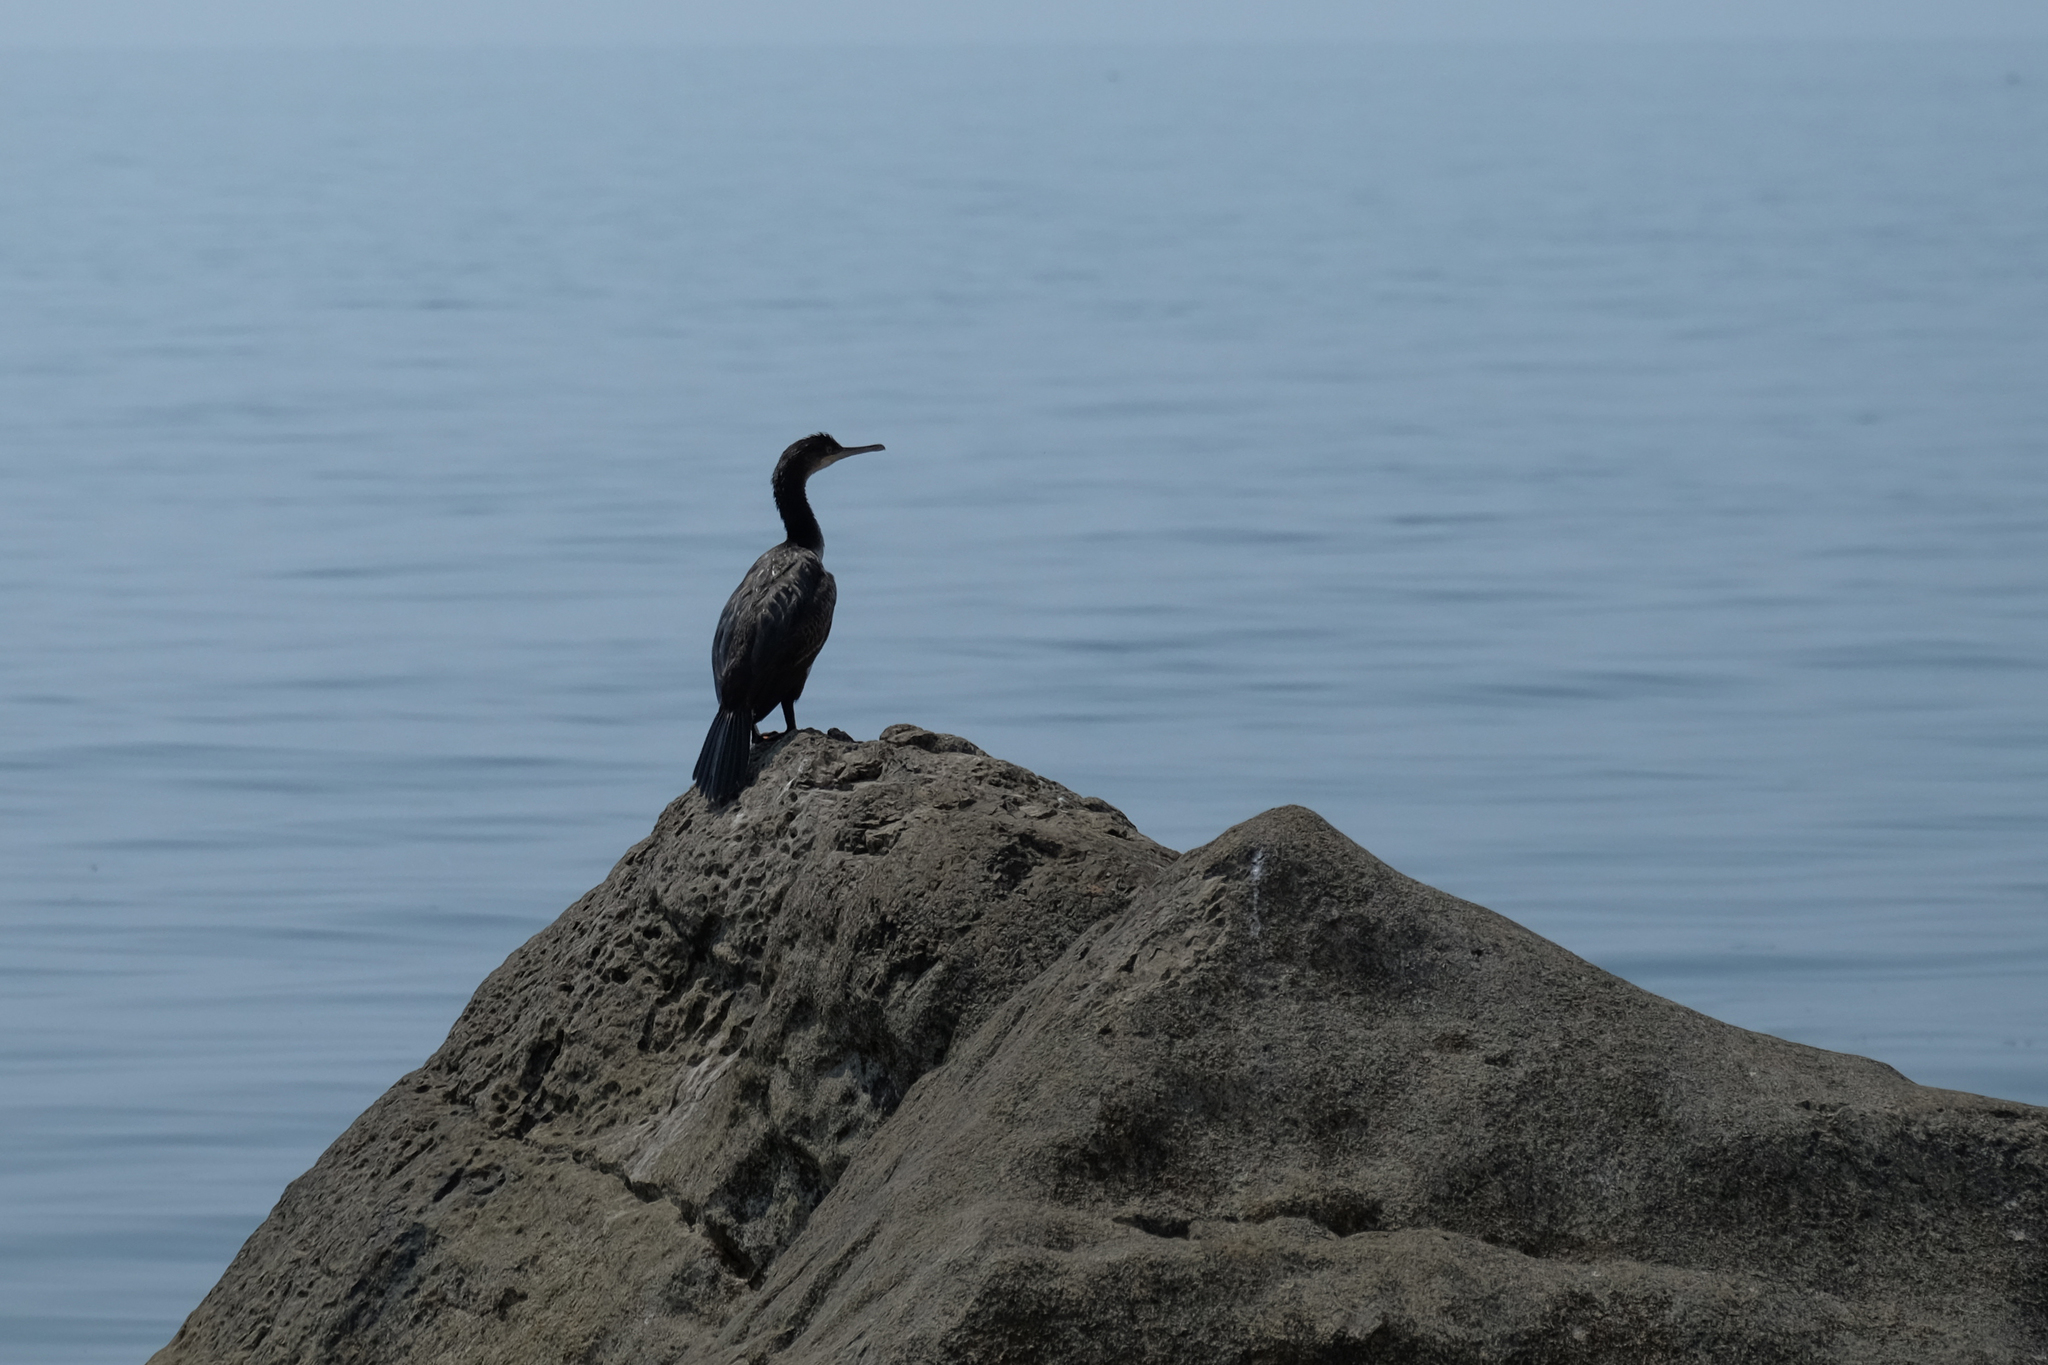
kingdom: Animalia
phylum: Chordata
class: Aves
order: Suliformes
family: Phalacrocoracidae
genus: Phalacrocorax
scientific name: Phalacrocorax aristotelis
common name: European shag
